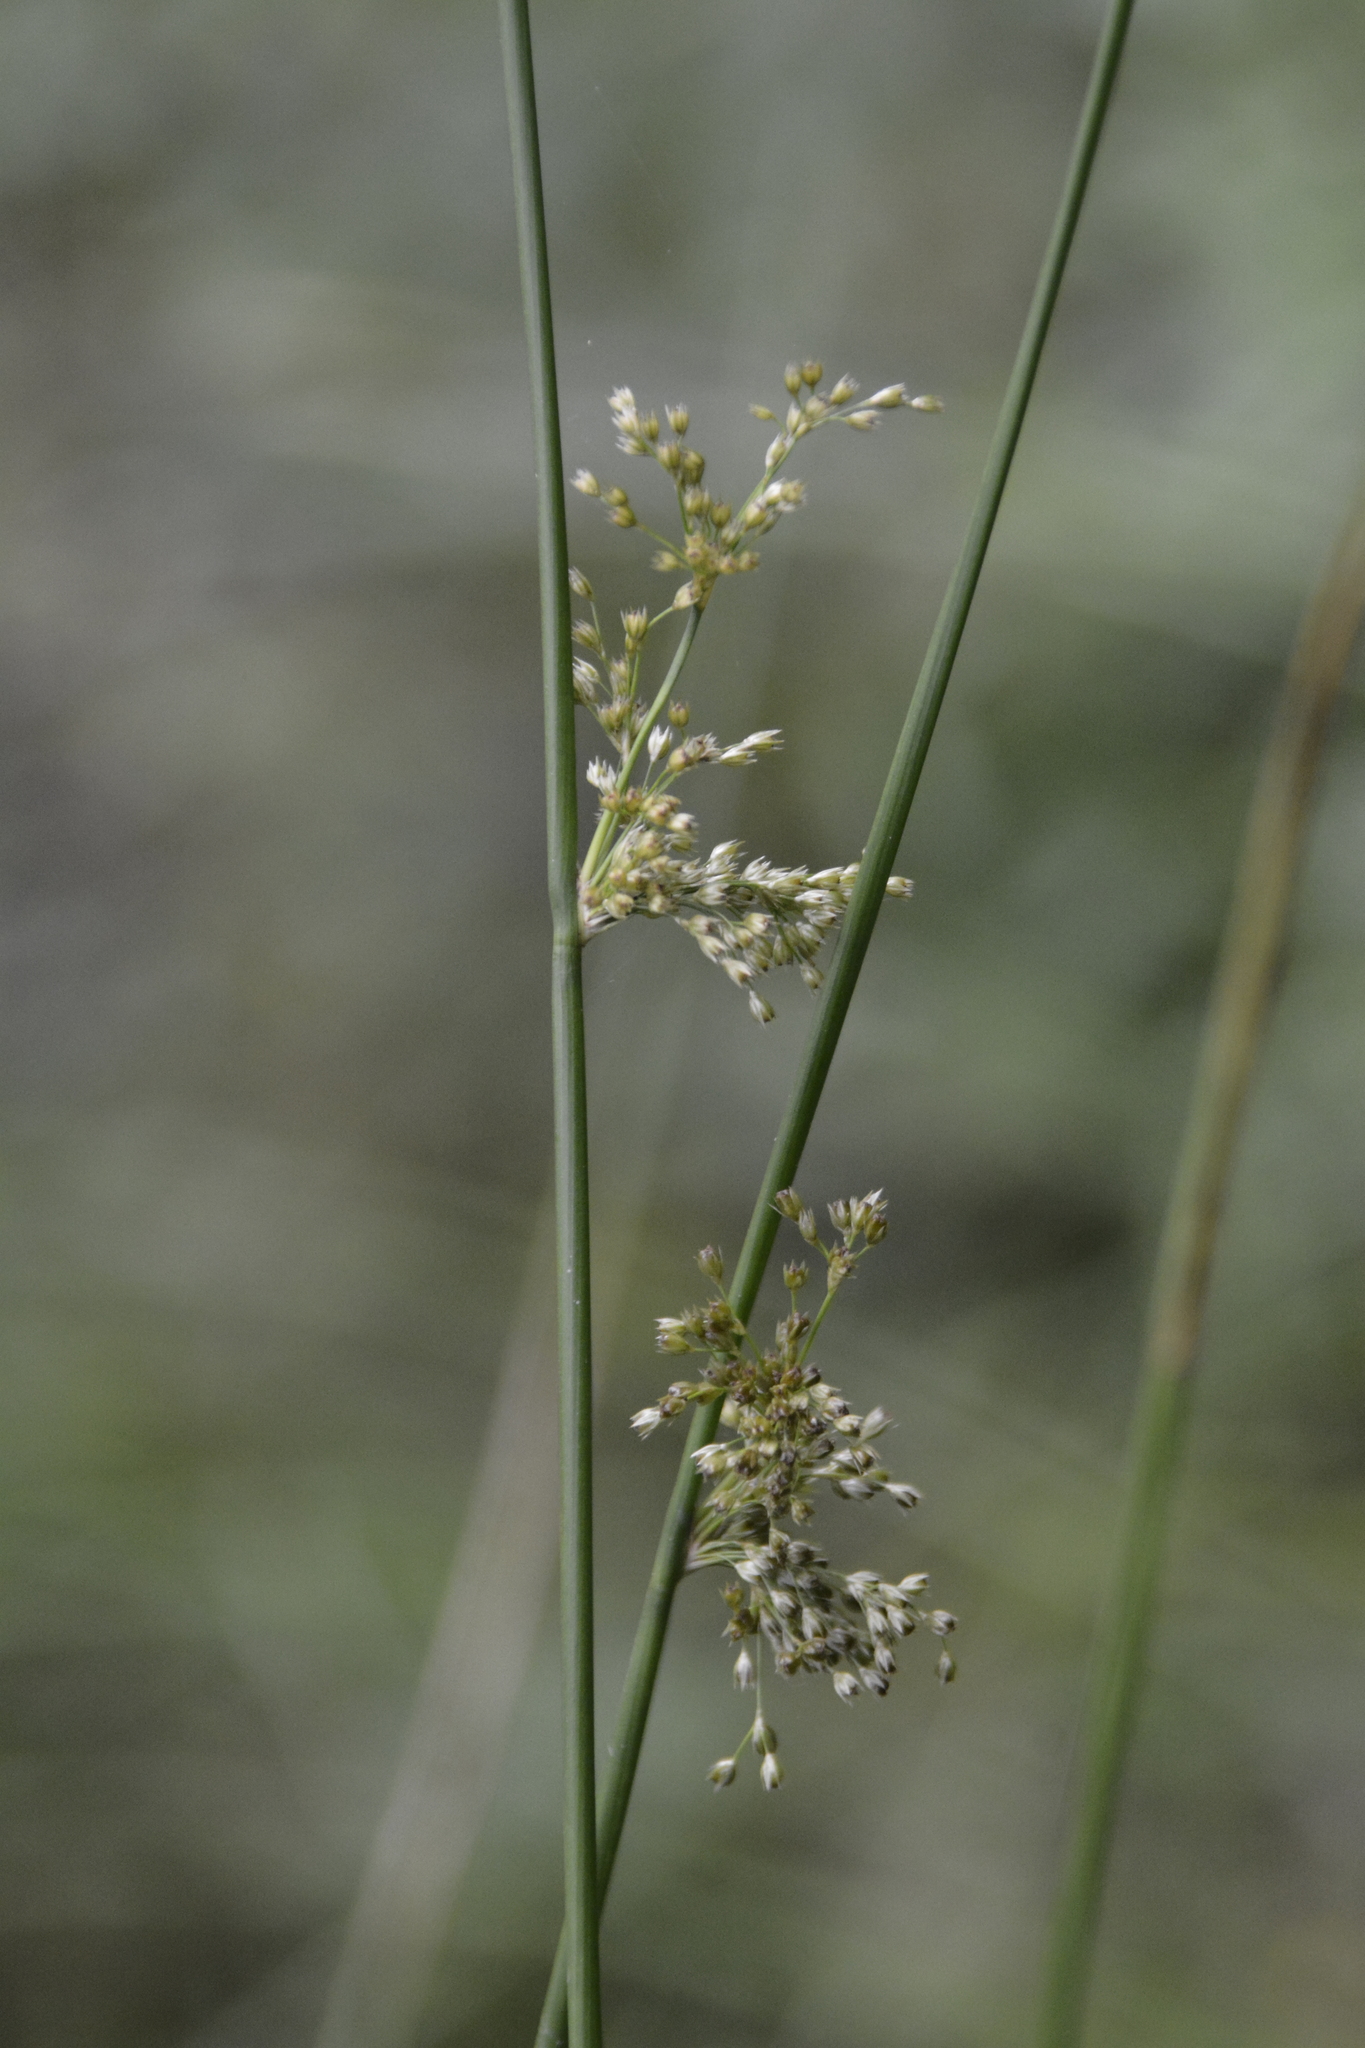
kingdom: Plantae
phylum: Tracheophyta
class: Liliopsida
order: Poales
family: Juncaceae
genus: Juncus
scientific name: Juncus effusus
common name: Soft rush
